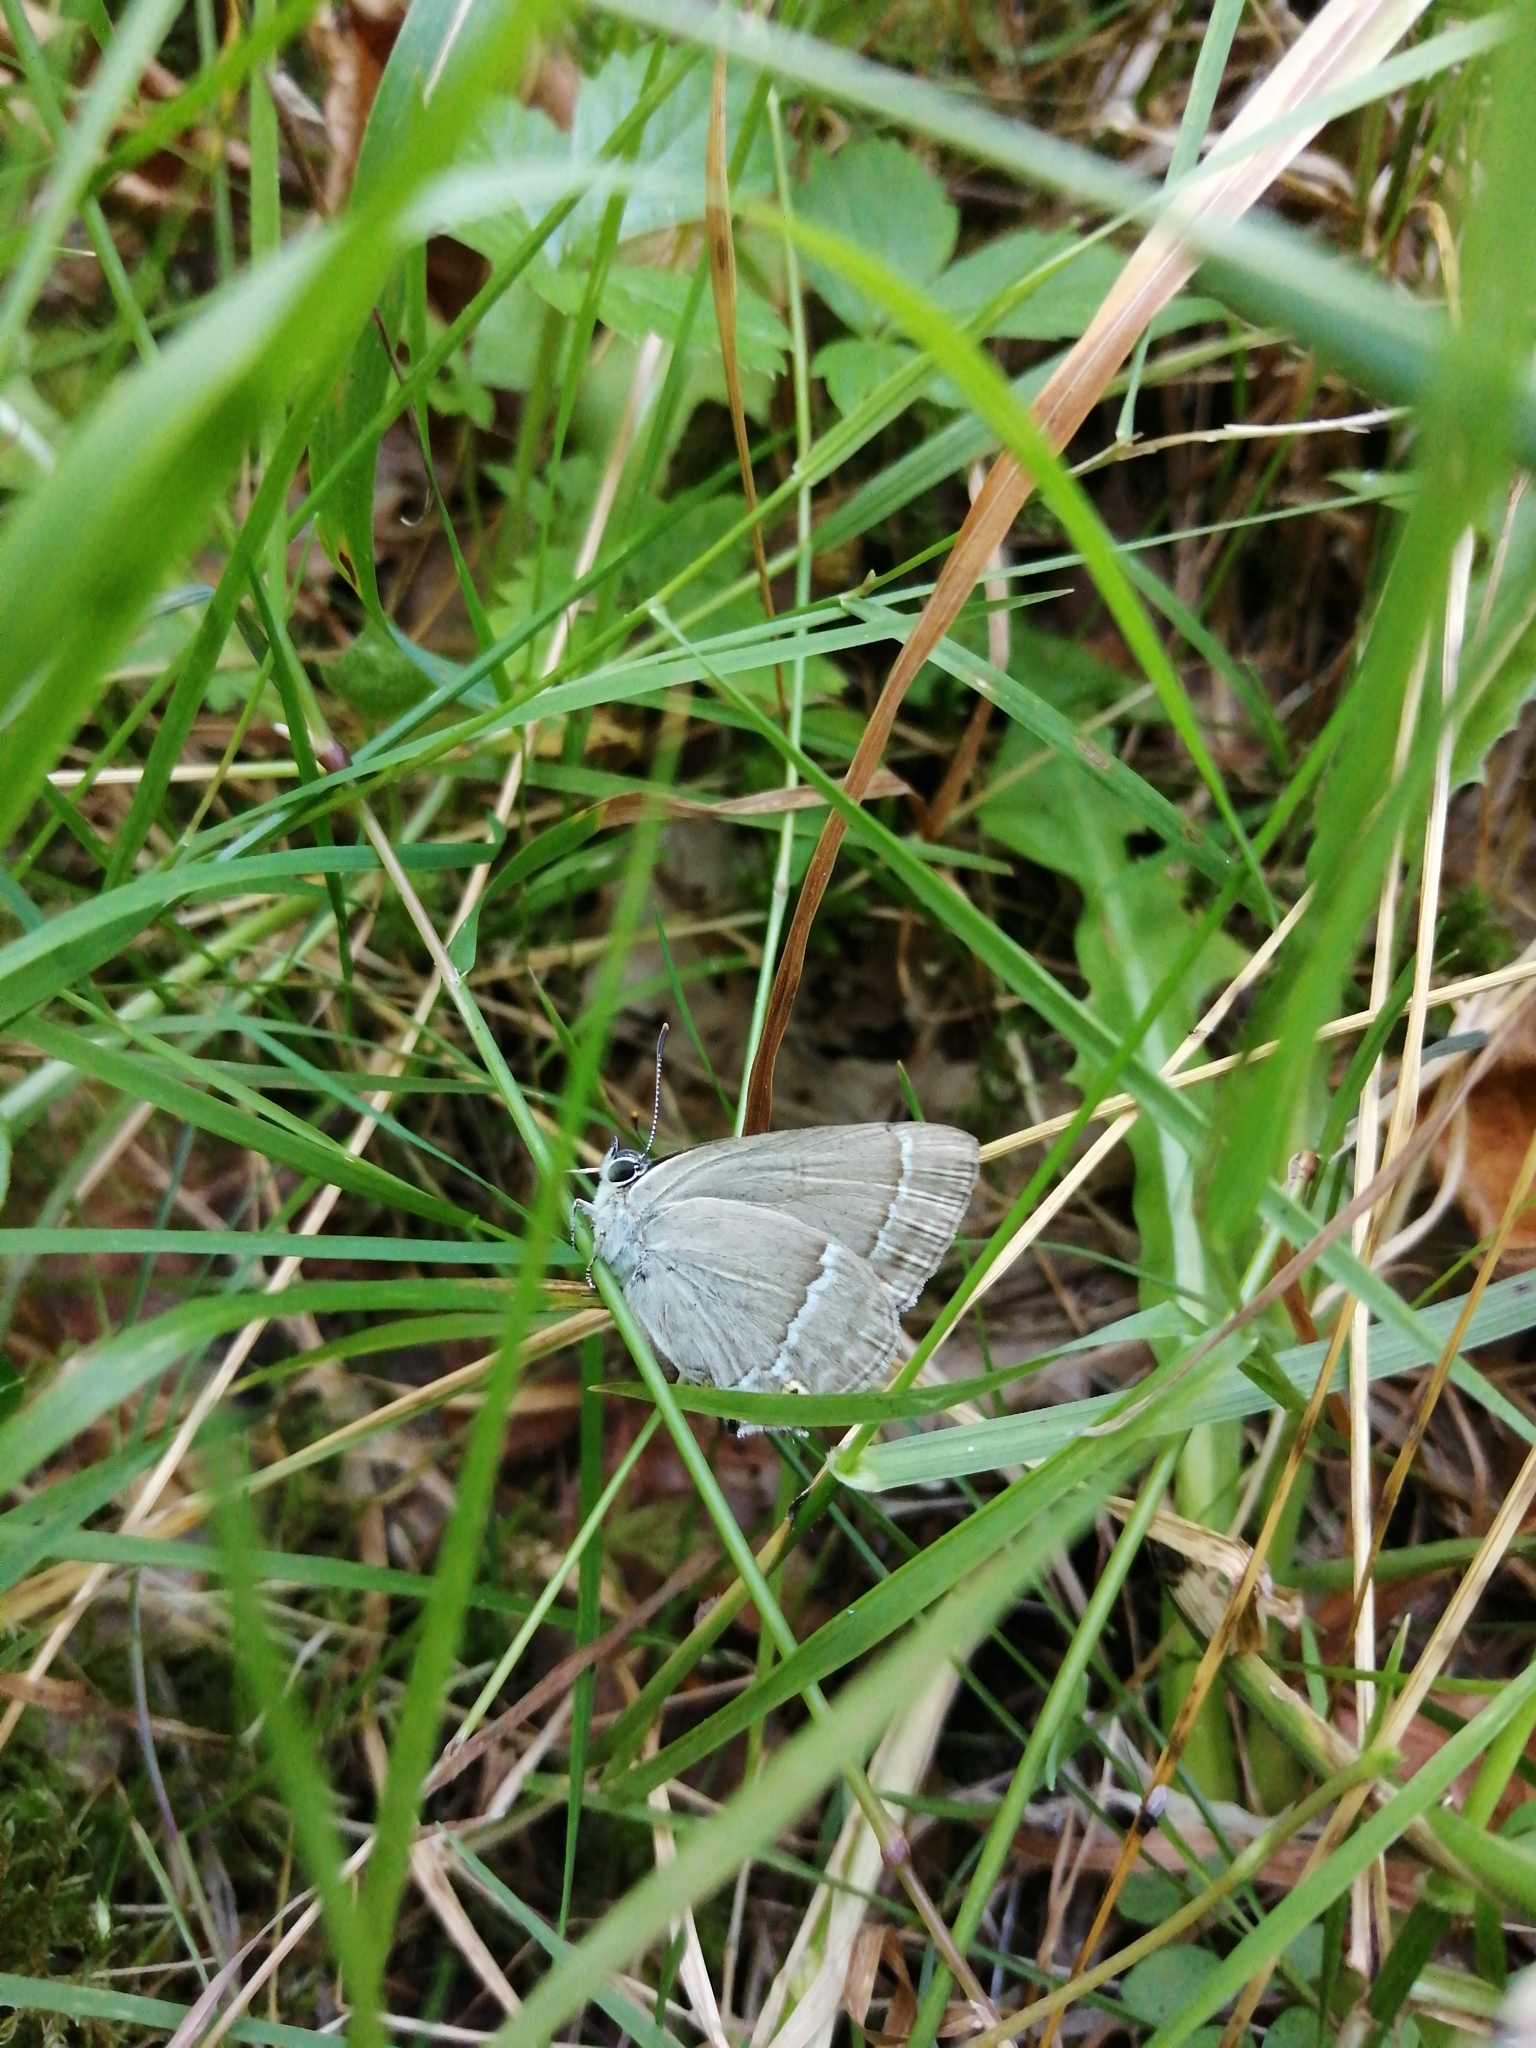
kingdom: Animalia
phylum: Arthropoda
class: Insecta
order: Lepidoptera
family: Lycaenidae
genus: Quercusia
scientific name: Quercusia quercus
